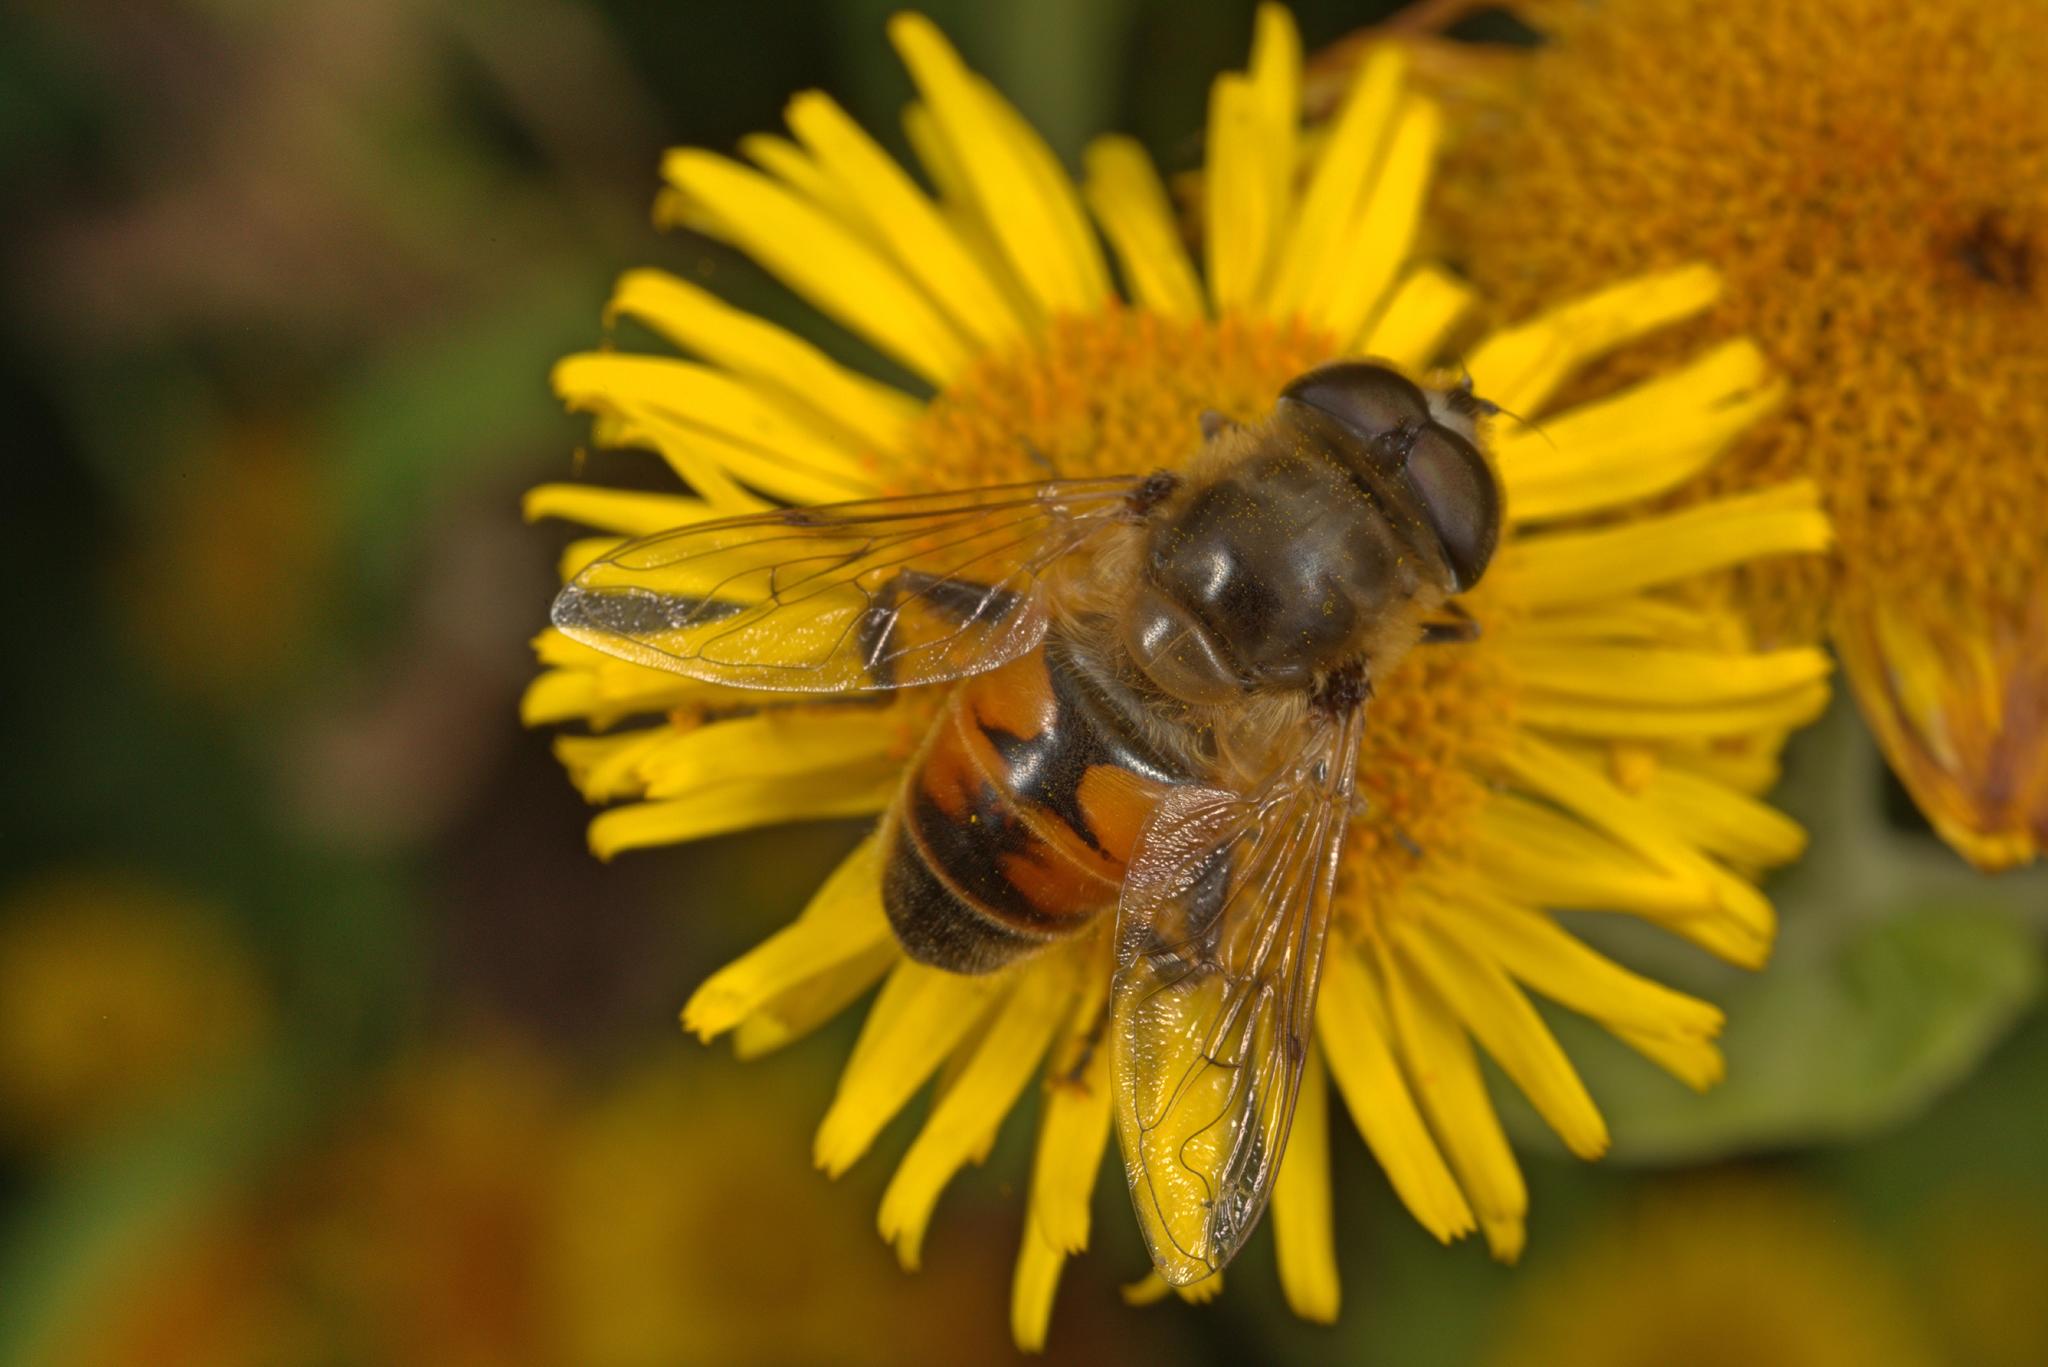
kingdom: Animalia
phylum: Arthropoda
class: Insecta
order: Diptera
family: Syrphidae
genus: Eristalis
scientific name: Eristalis tenax
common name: Drone fly
